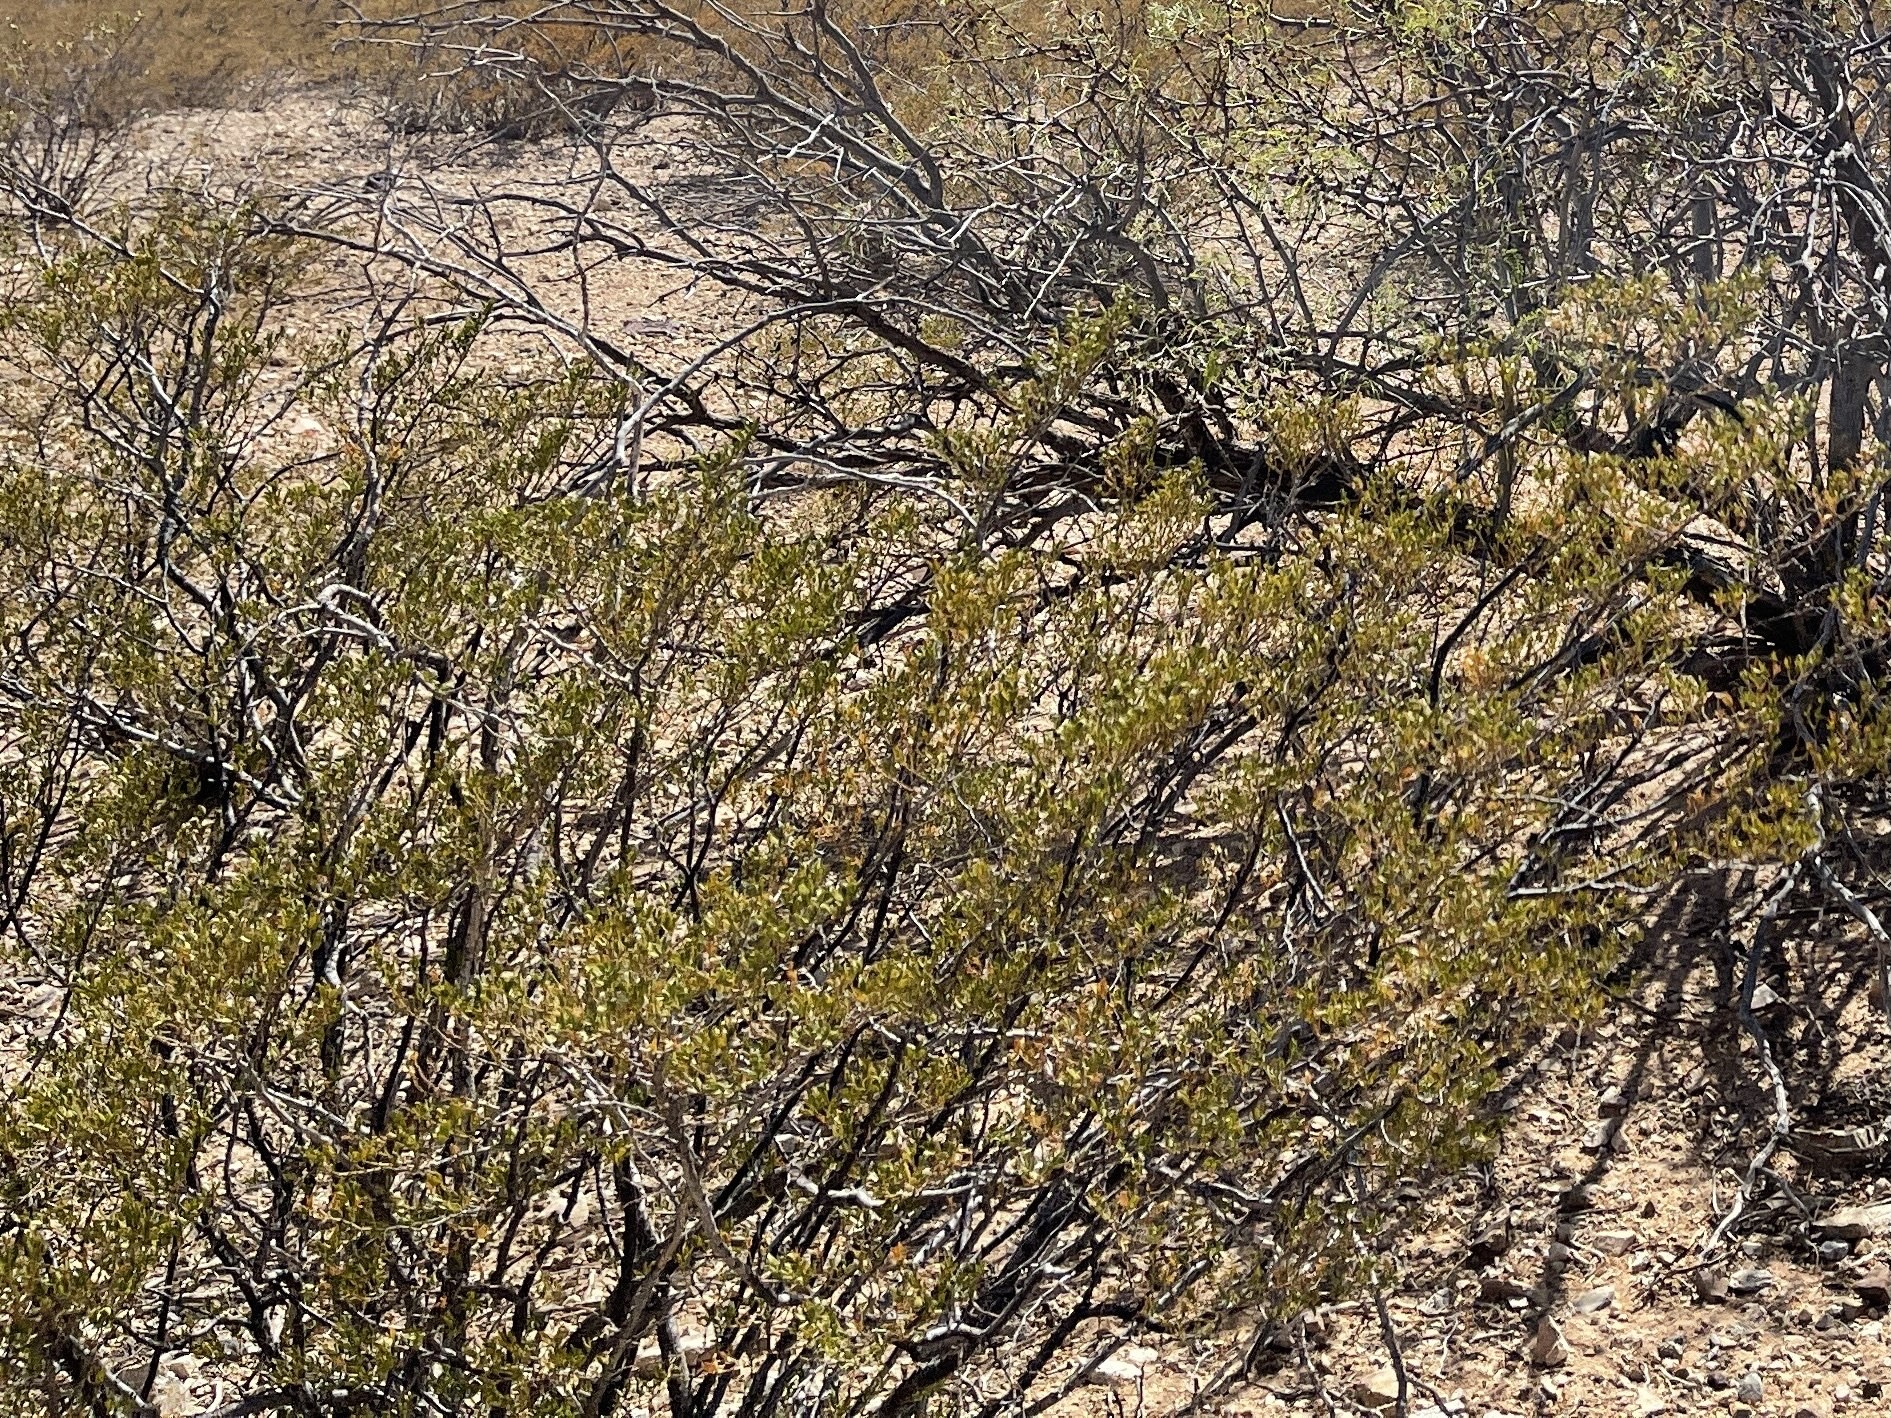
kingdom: Plantae
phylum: Tracheophyta
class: Magnoliopsida
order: Zygophyllales
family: Zygophyllaceae
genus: Larrea
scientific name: Larrea tridentata
